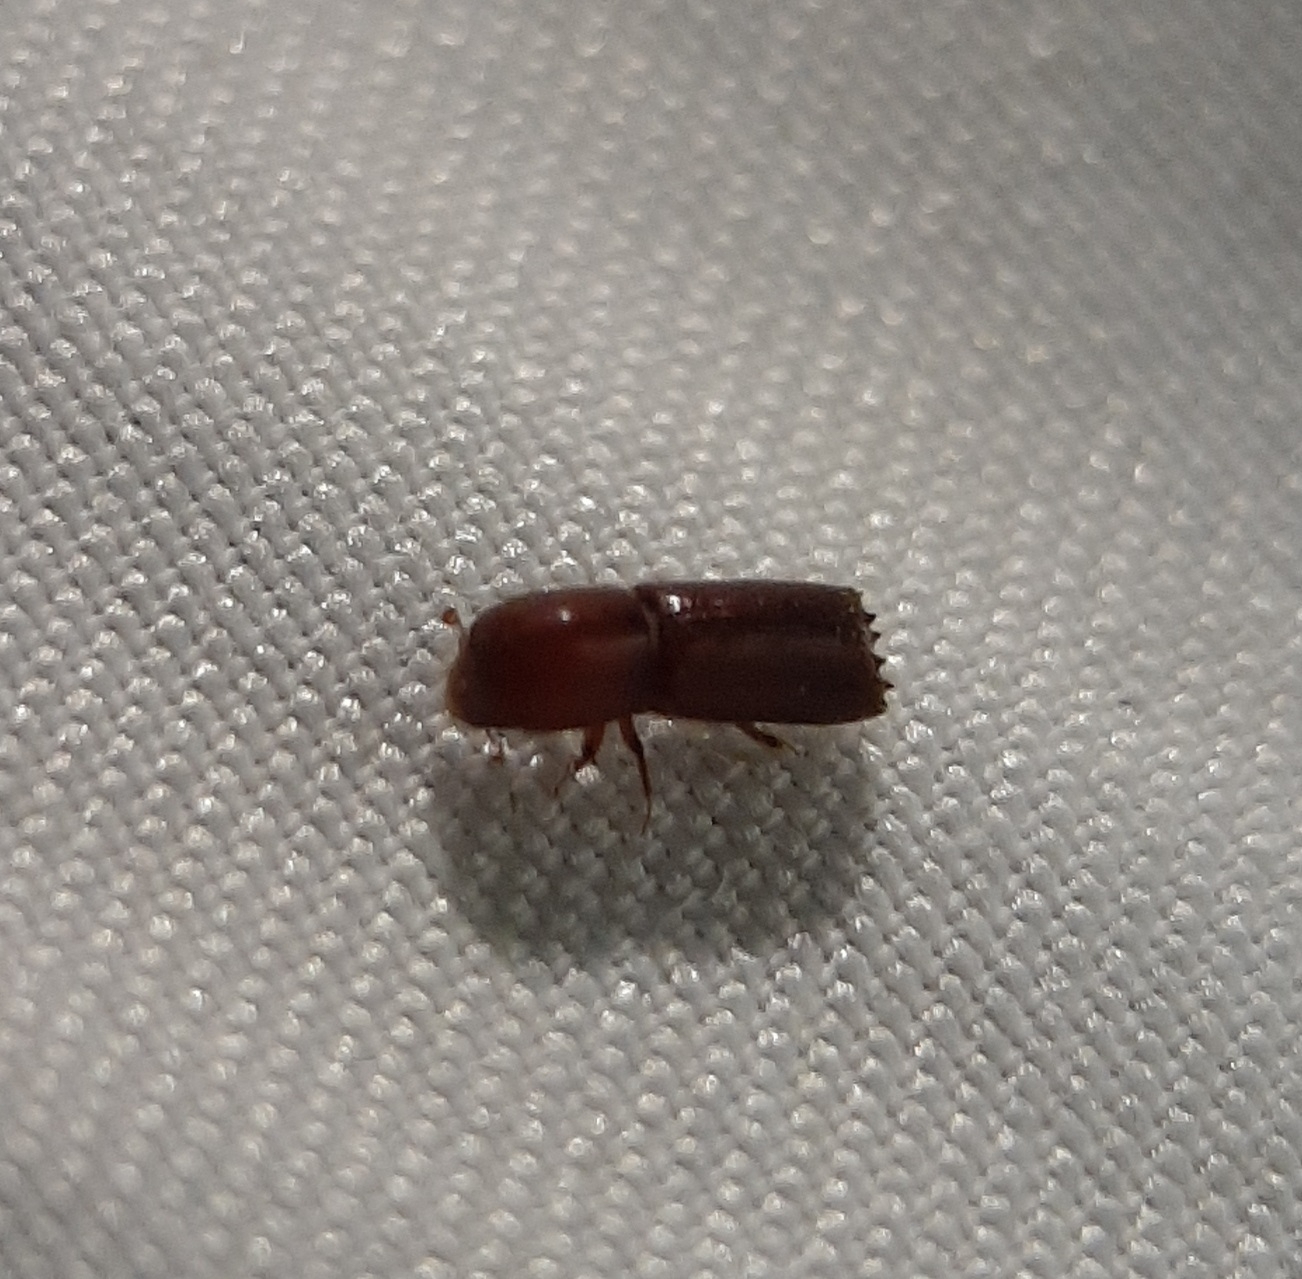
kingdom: Animalia
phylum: Arthropoda
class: Insecta
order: Coleoptera
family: Curculionidae
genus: Xyleborus
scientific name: Xyleborus celsus
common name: Weevil
